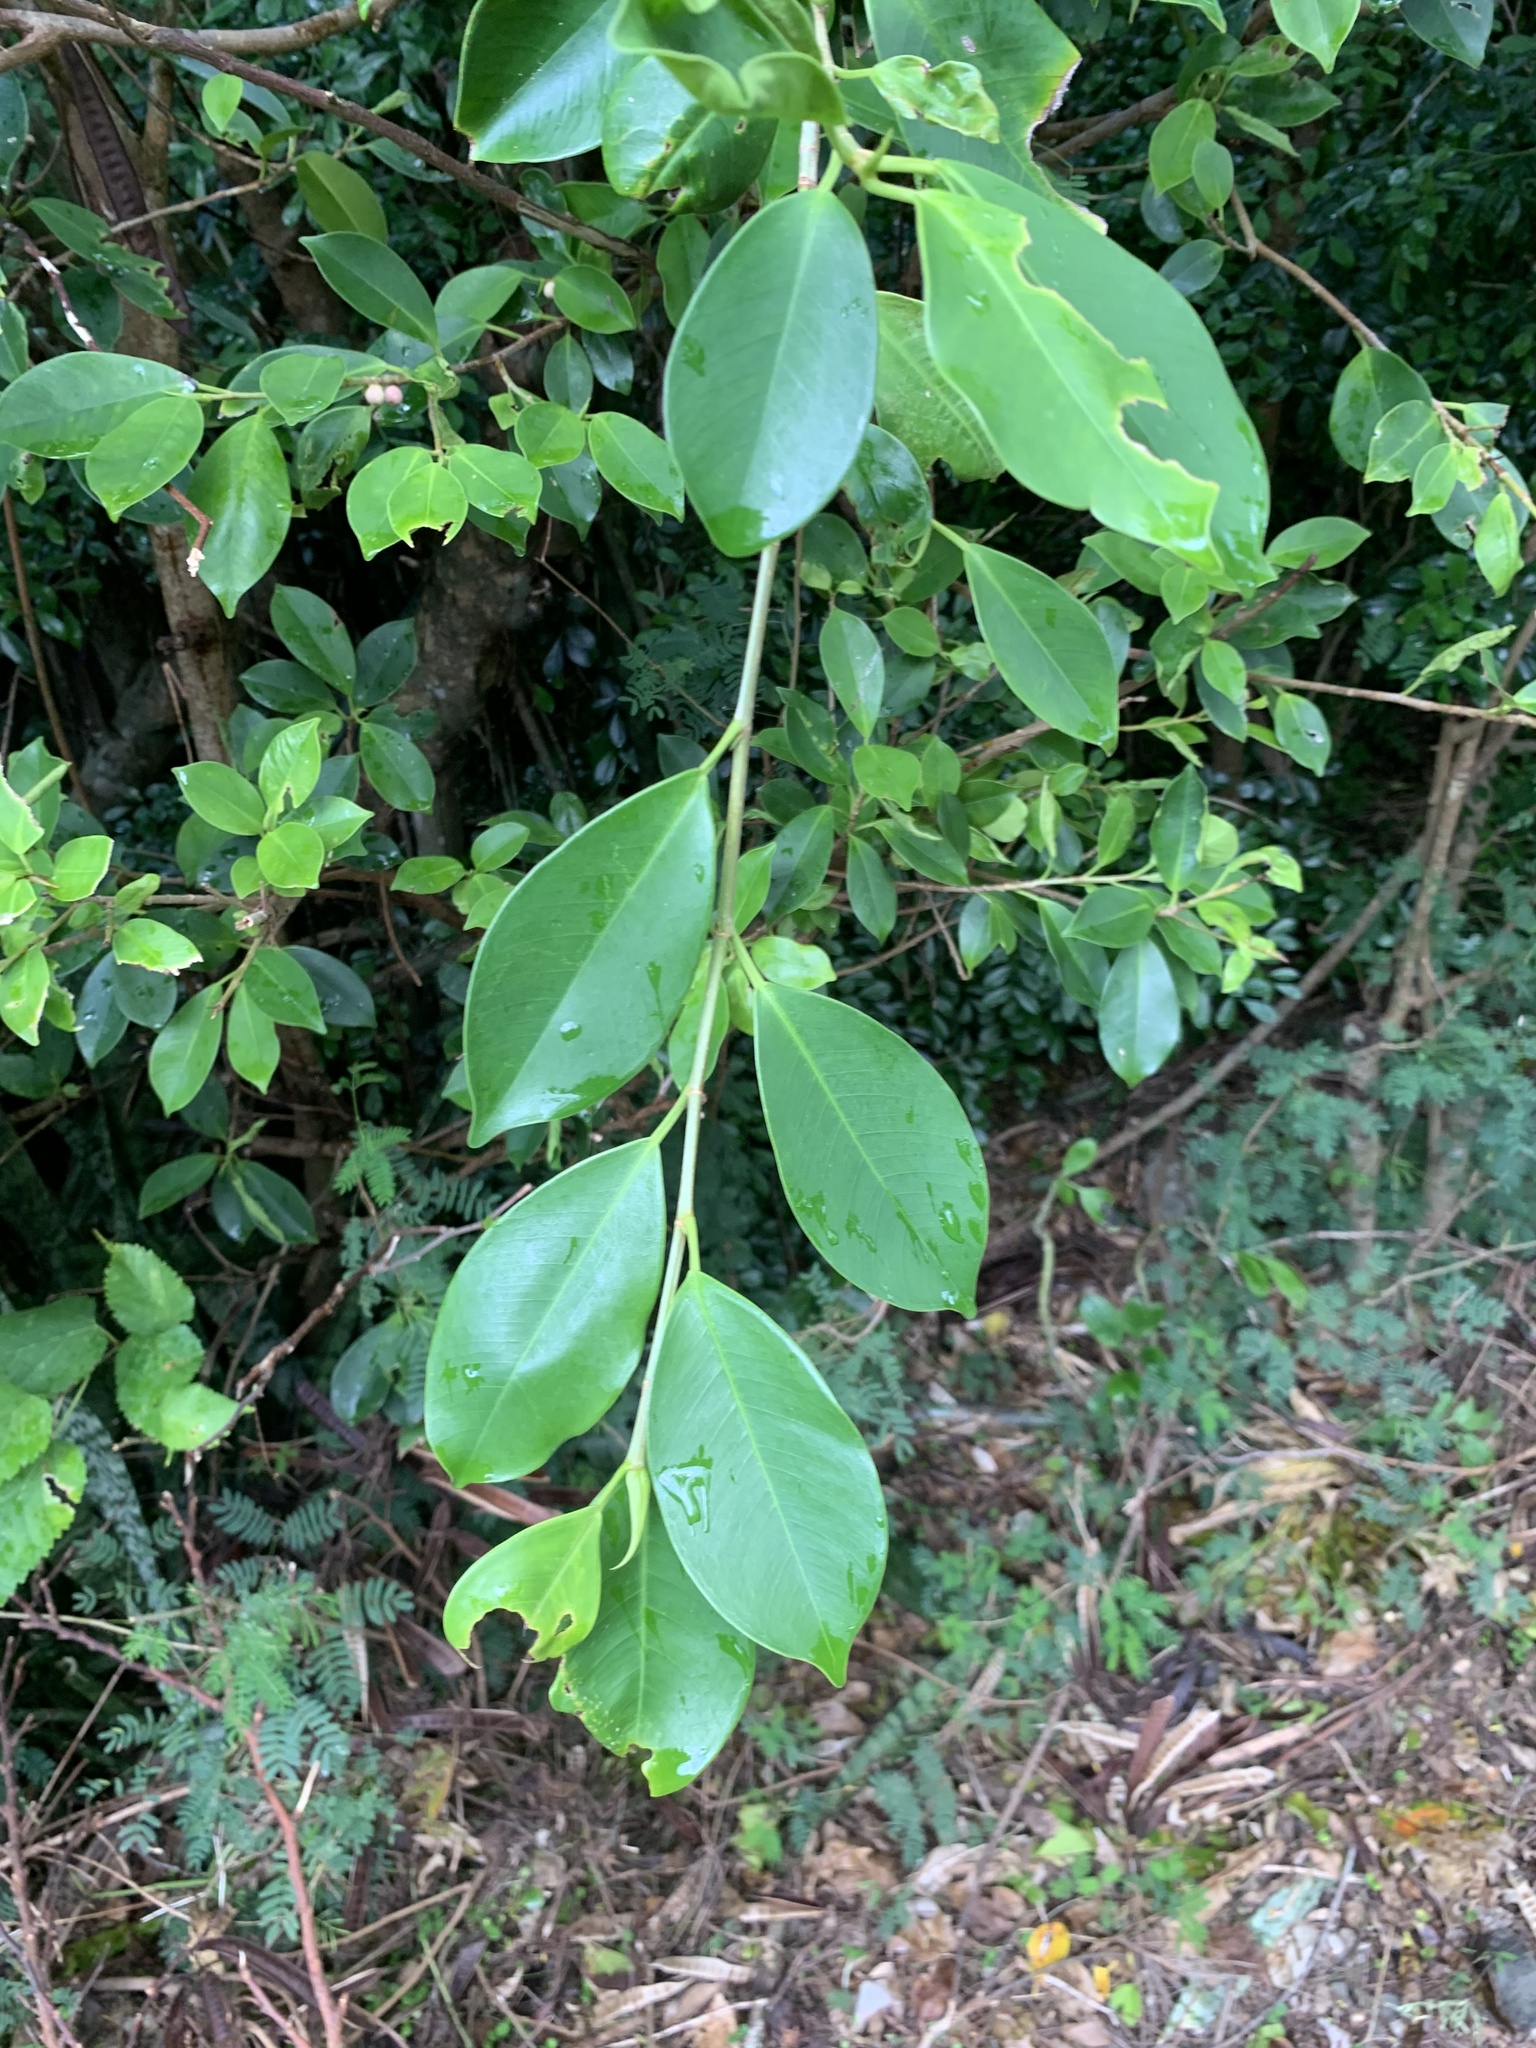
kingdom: Plantae
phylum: Tracheophyta
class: Magnoliopsida
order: Rosales
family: Moraceae
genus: Ficus
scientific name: Ficus microcarpa
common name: Chinese banyan
